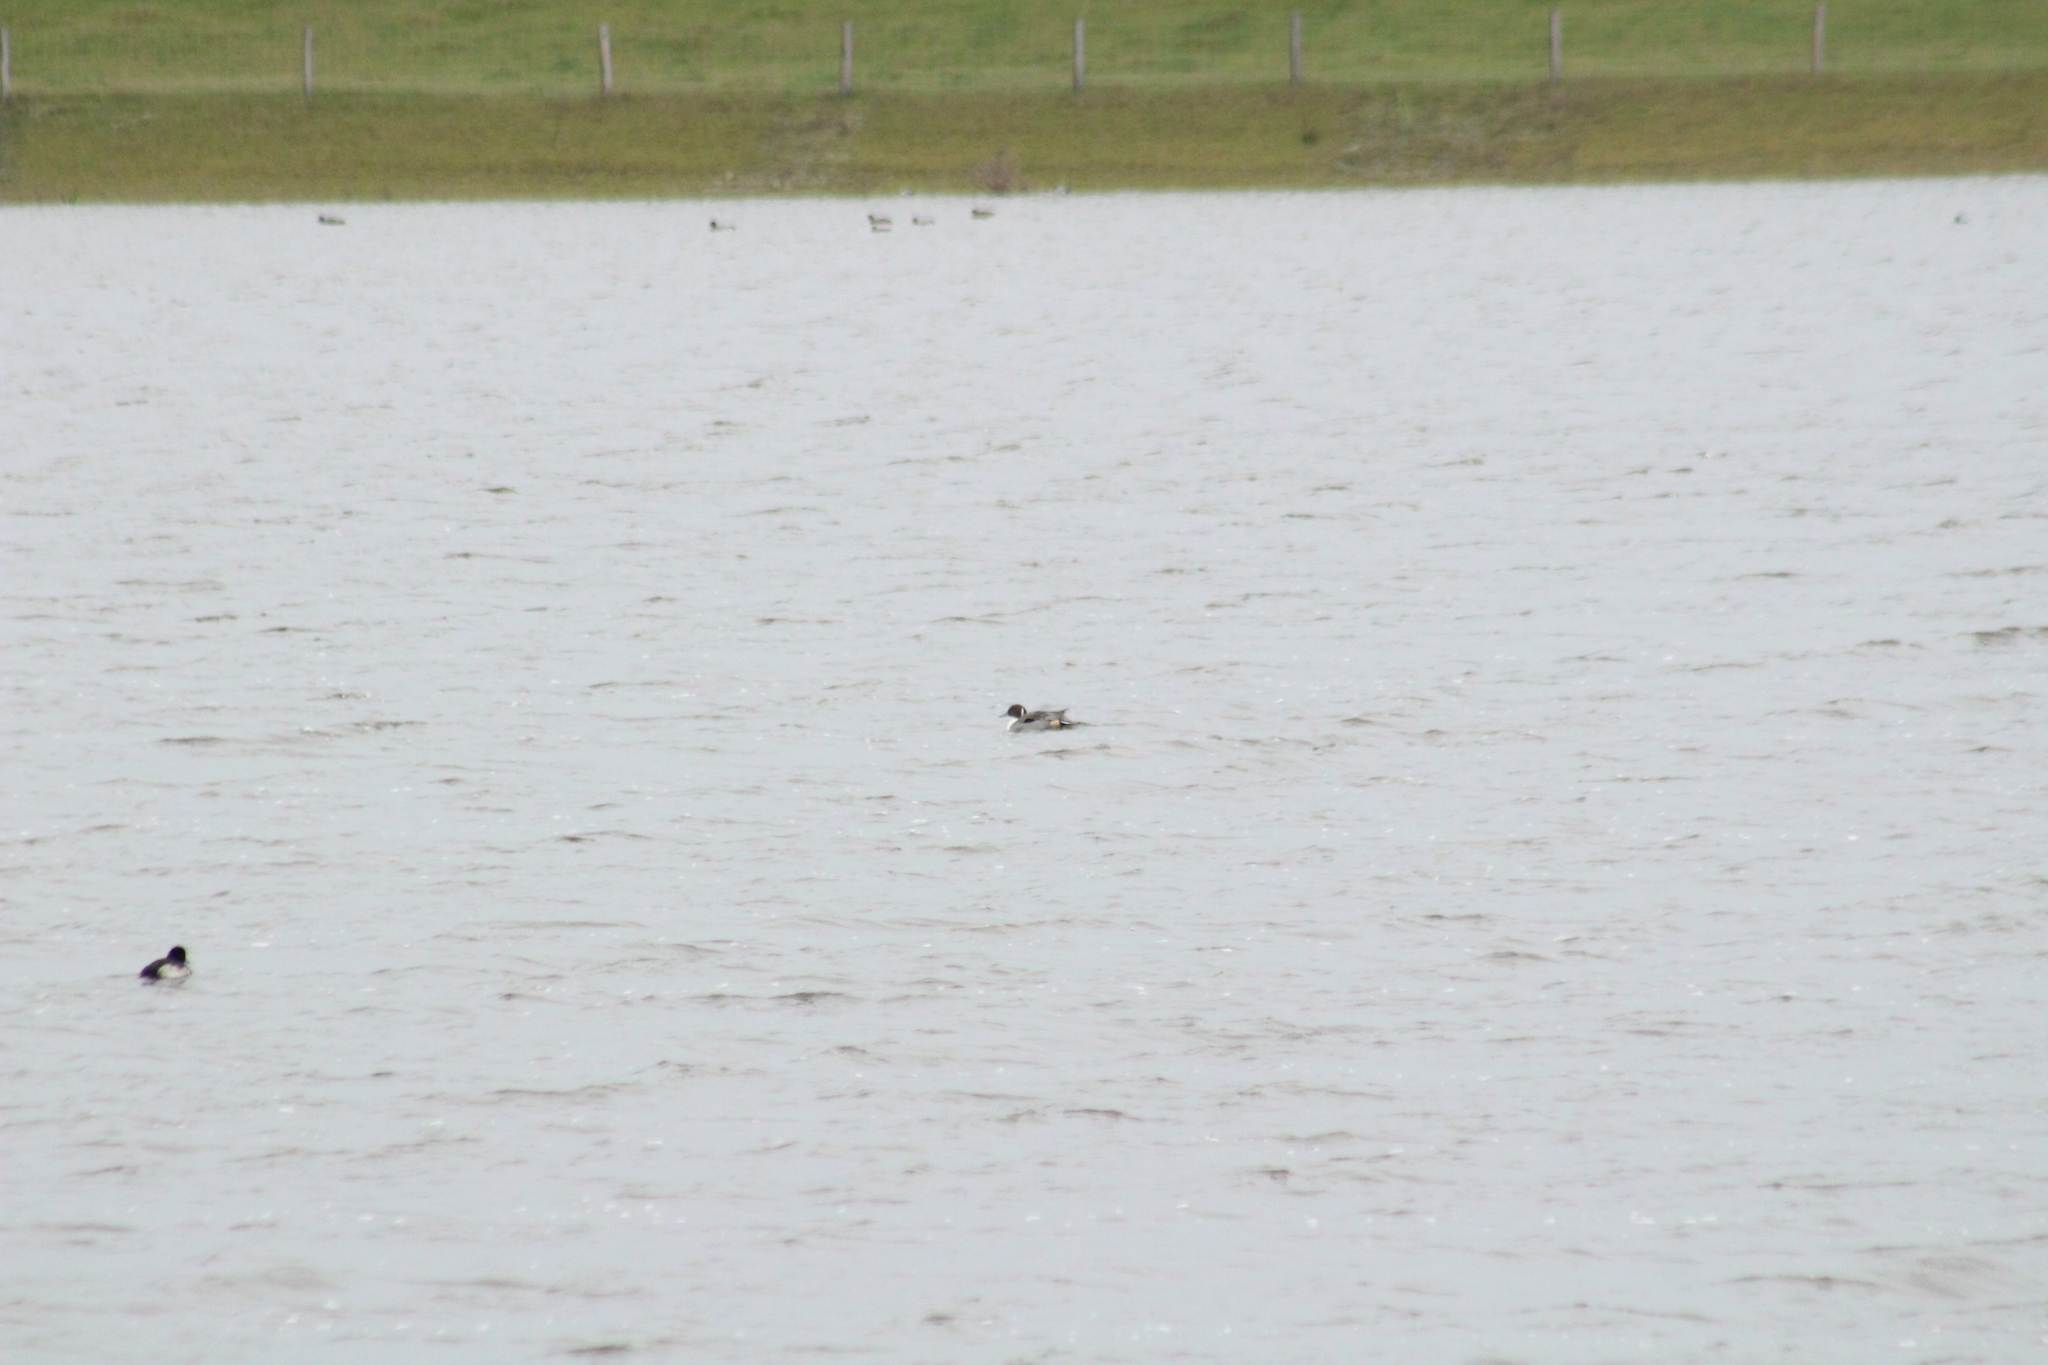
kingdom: Animalia
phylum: Chordata
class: Aves
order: Anseriformes
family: Anatidae
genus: Anas
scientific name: Anas acuta
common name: Northern pintail
